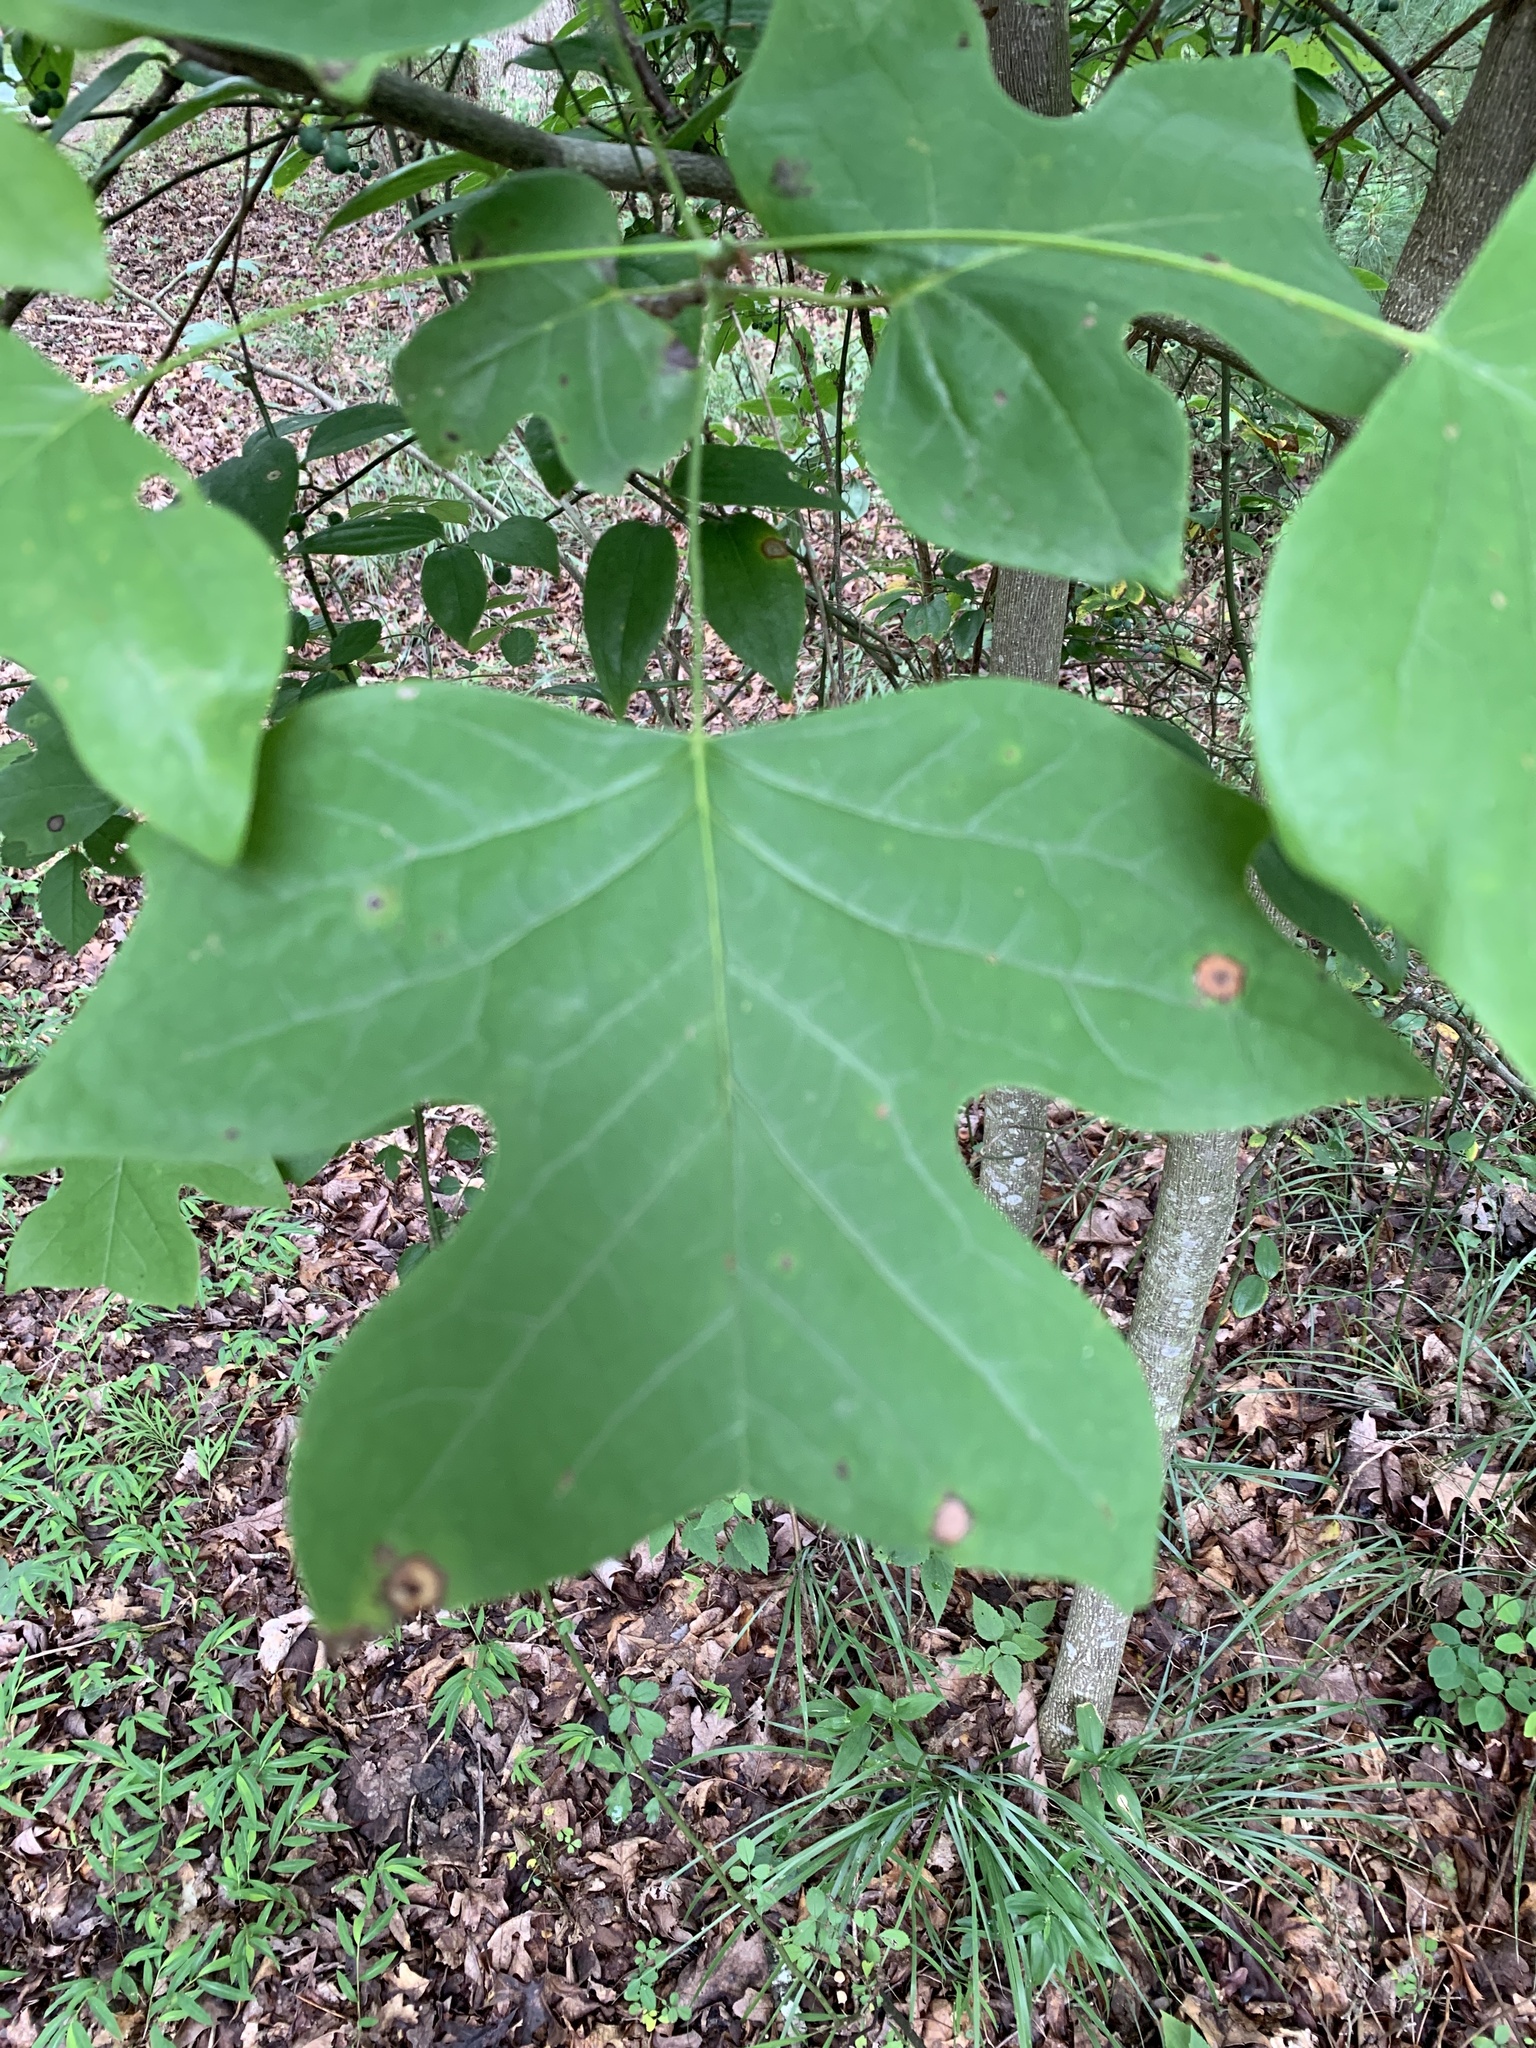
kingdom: Plantae
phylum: Tracheophyta
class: Magnoliopsida
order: Magnoliales
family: Magnoliaceae
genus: Liriodendron
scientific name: Liriodendron tulipifera
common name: Tulip tree
